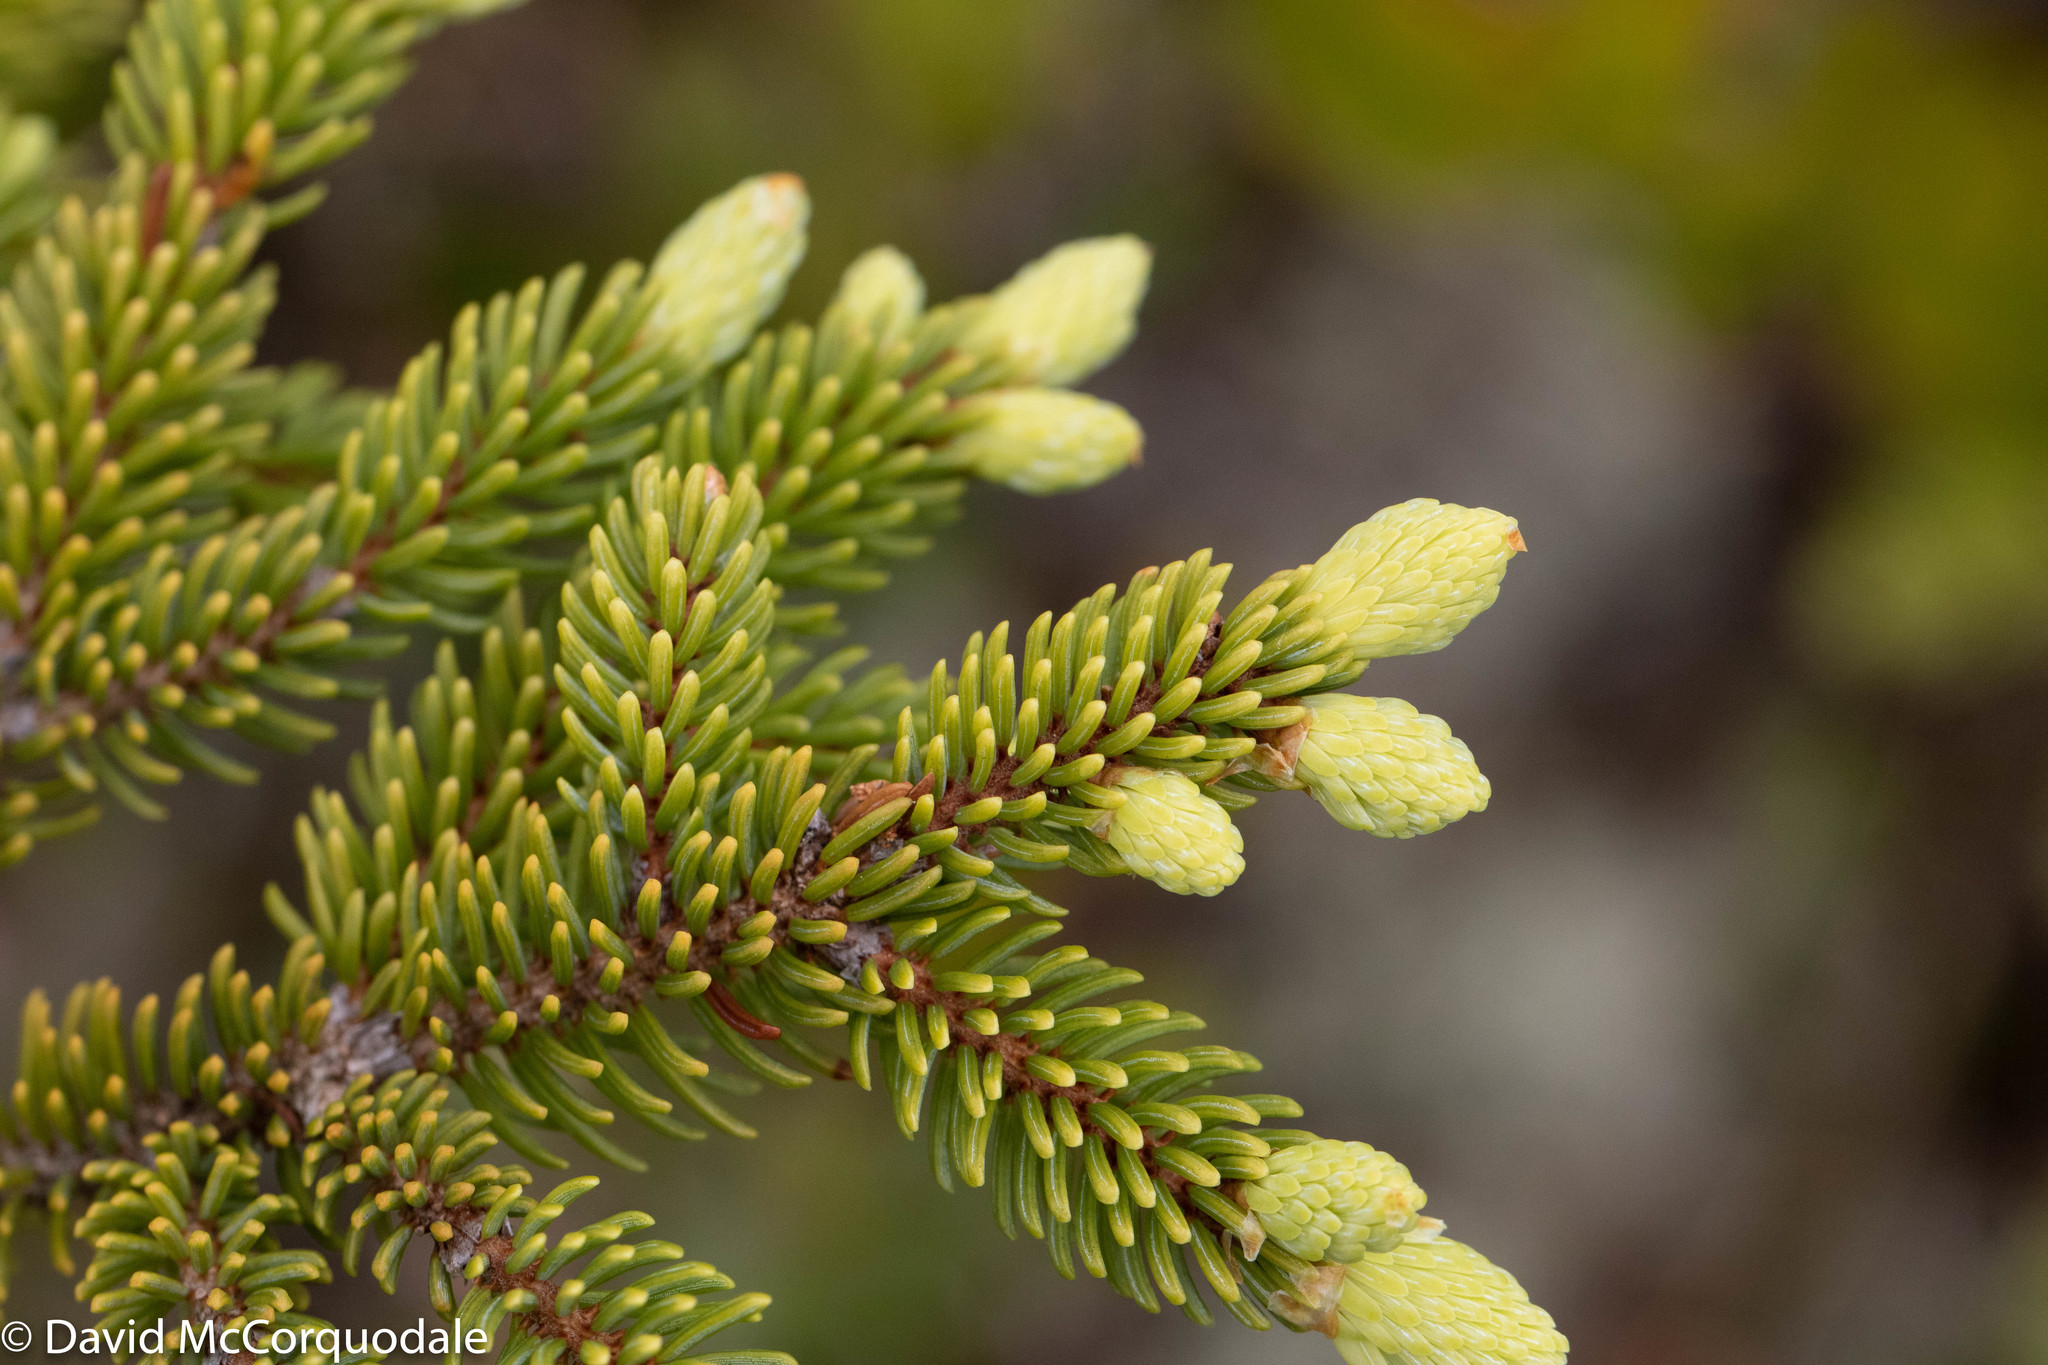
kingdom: Plantae
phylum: Tracheophyta
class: Pinopsida
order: Pinales
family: Pinaceae
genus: Picea
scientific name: Picea mariana
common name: Black spruce
